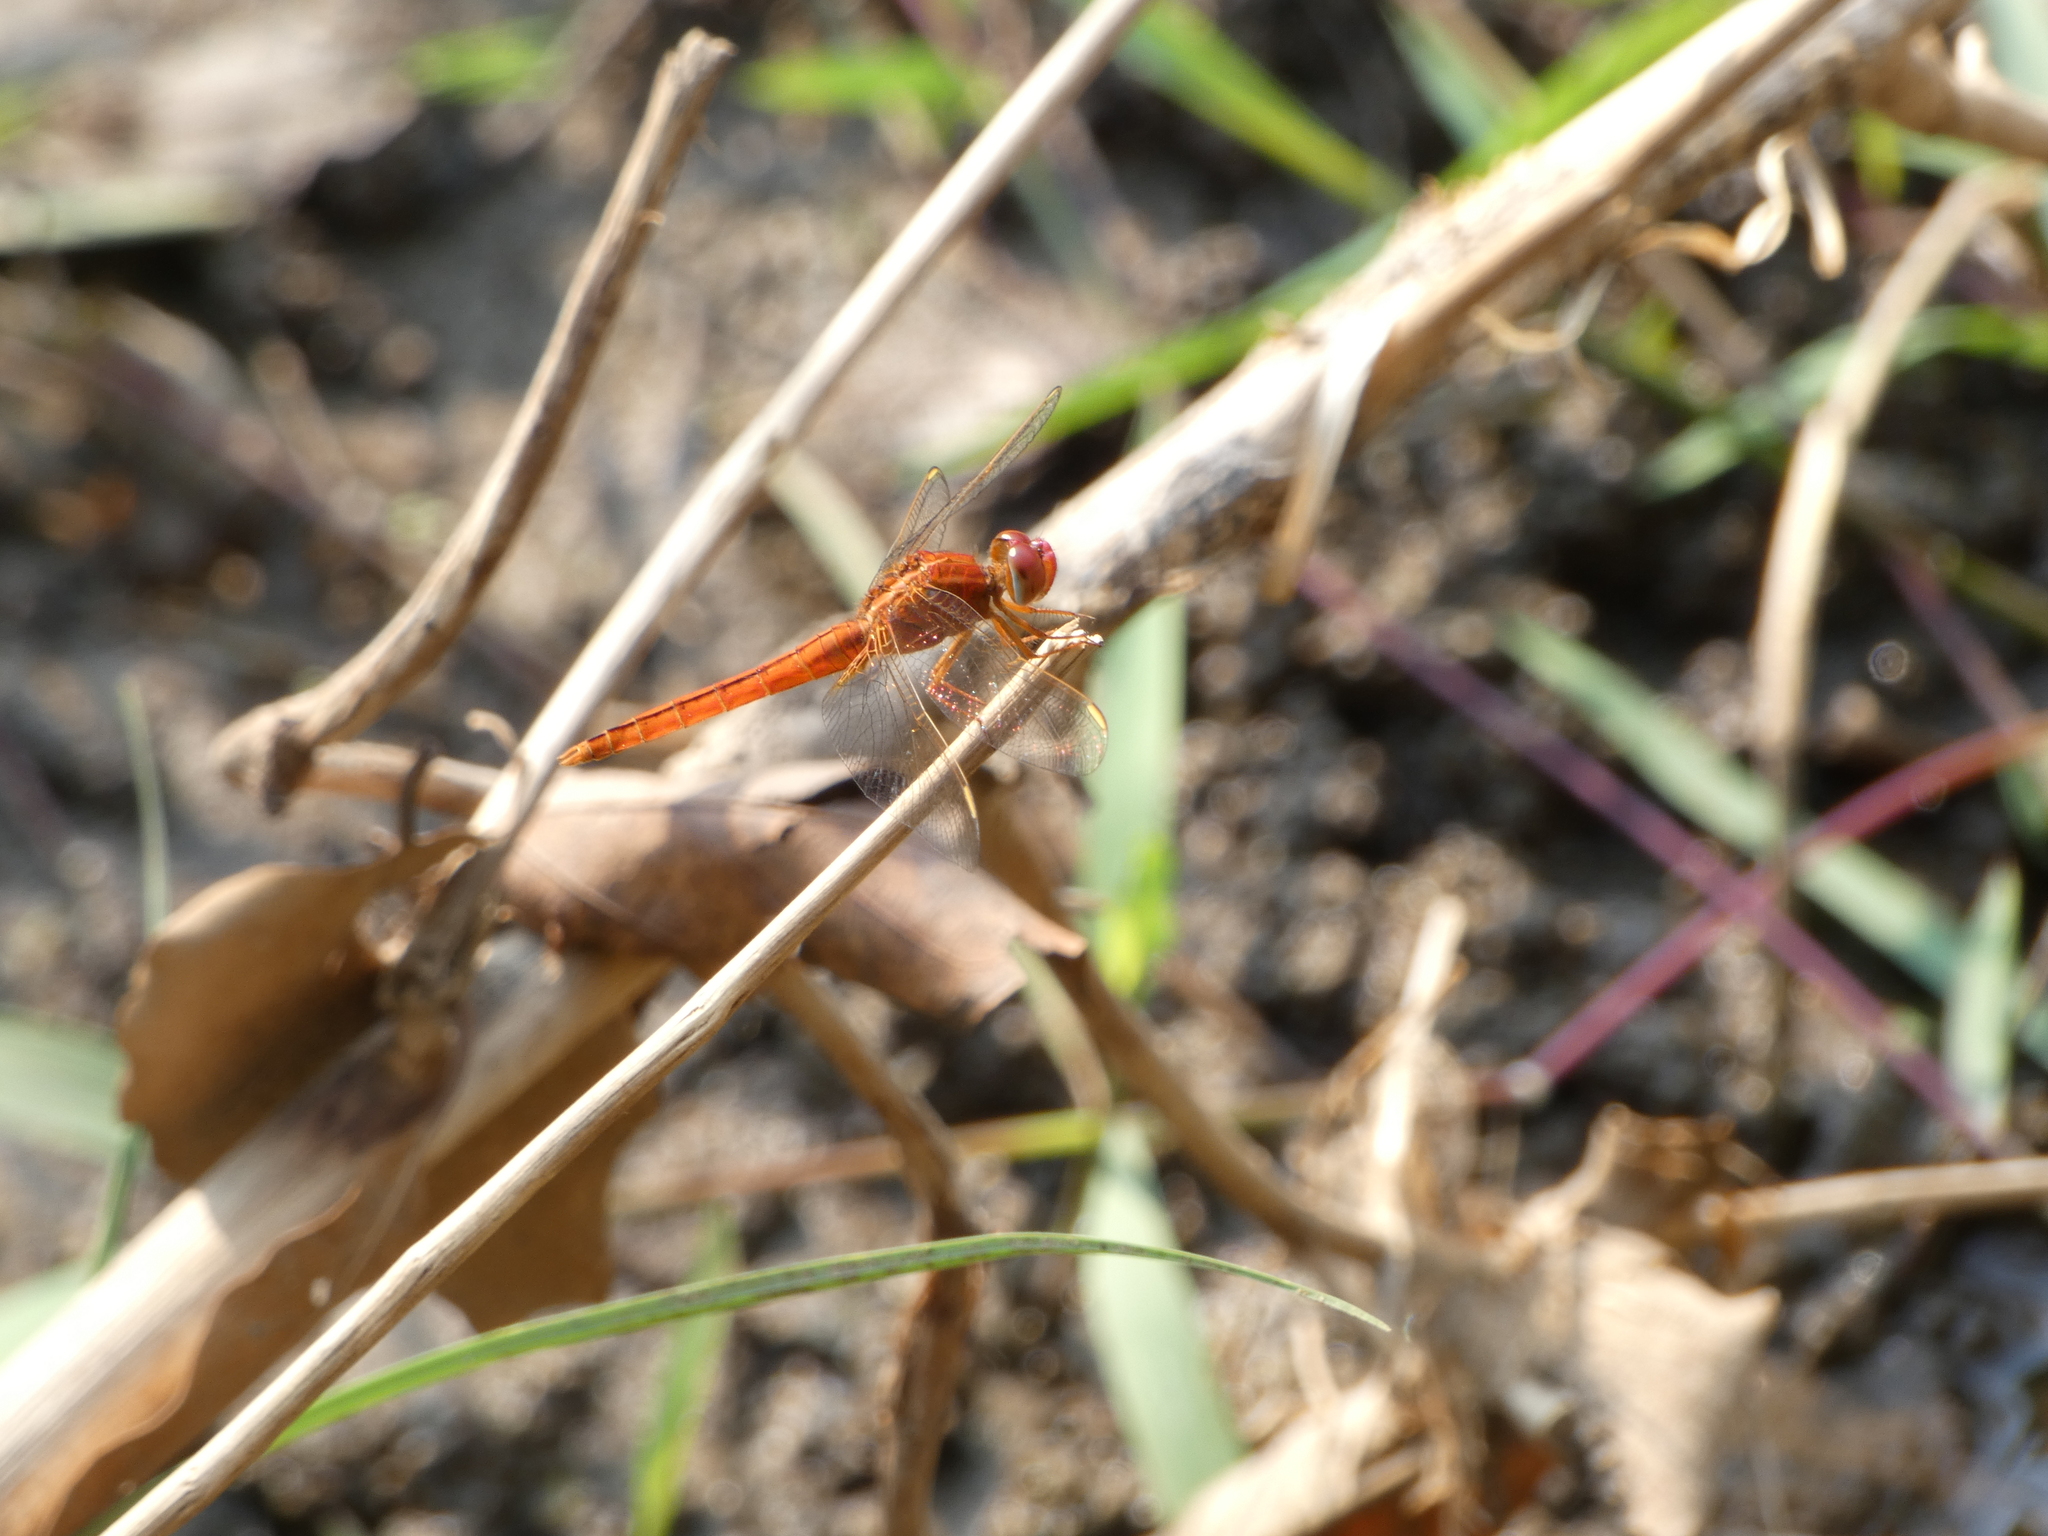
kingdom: Animalia
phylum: Arthropoda
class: Insecta
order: Odonata
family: Libellulidae
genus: Crocothemis
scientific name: Crocothemis servilia
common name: Scarlet skimmer
